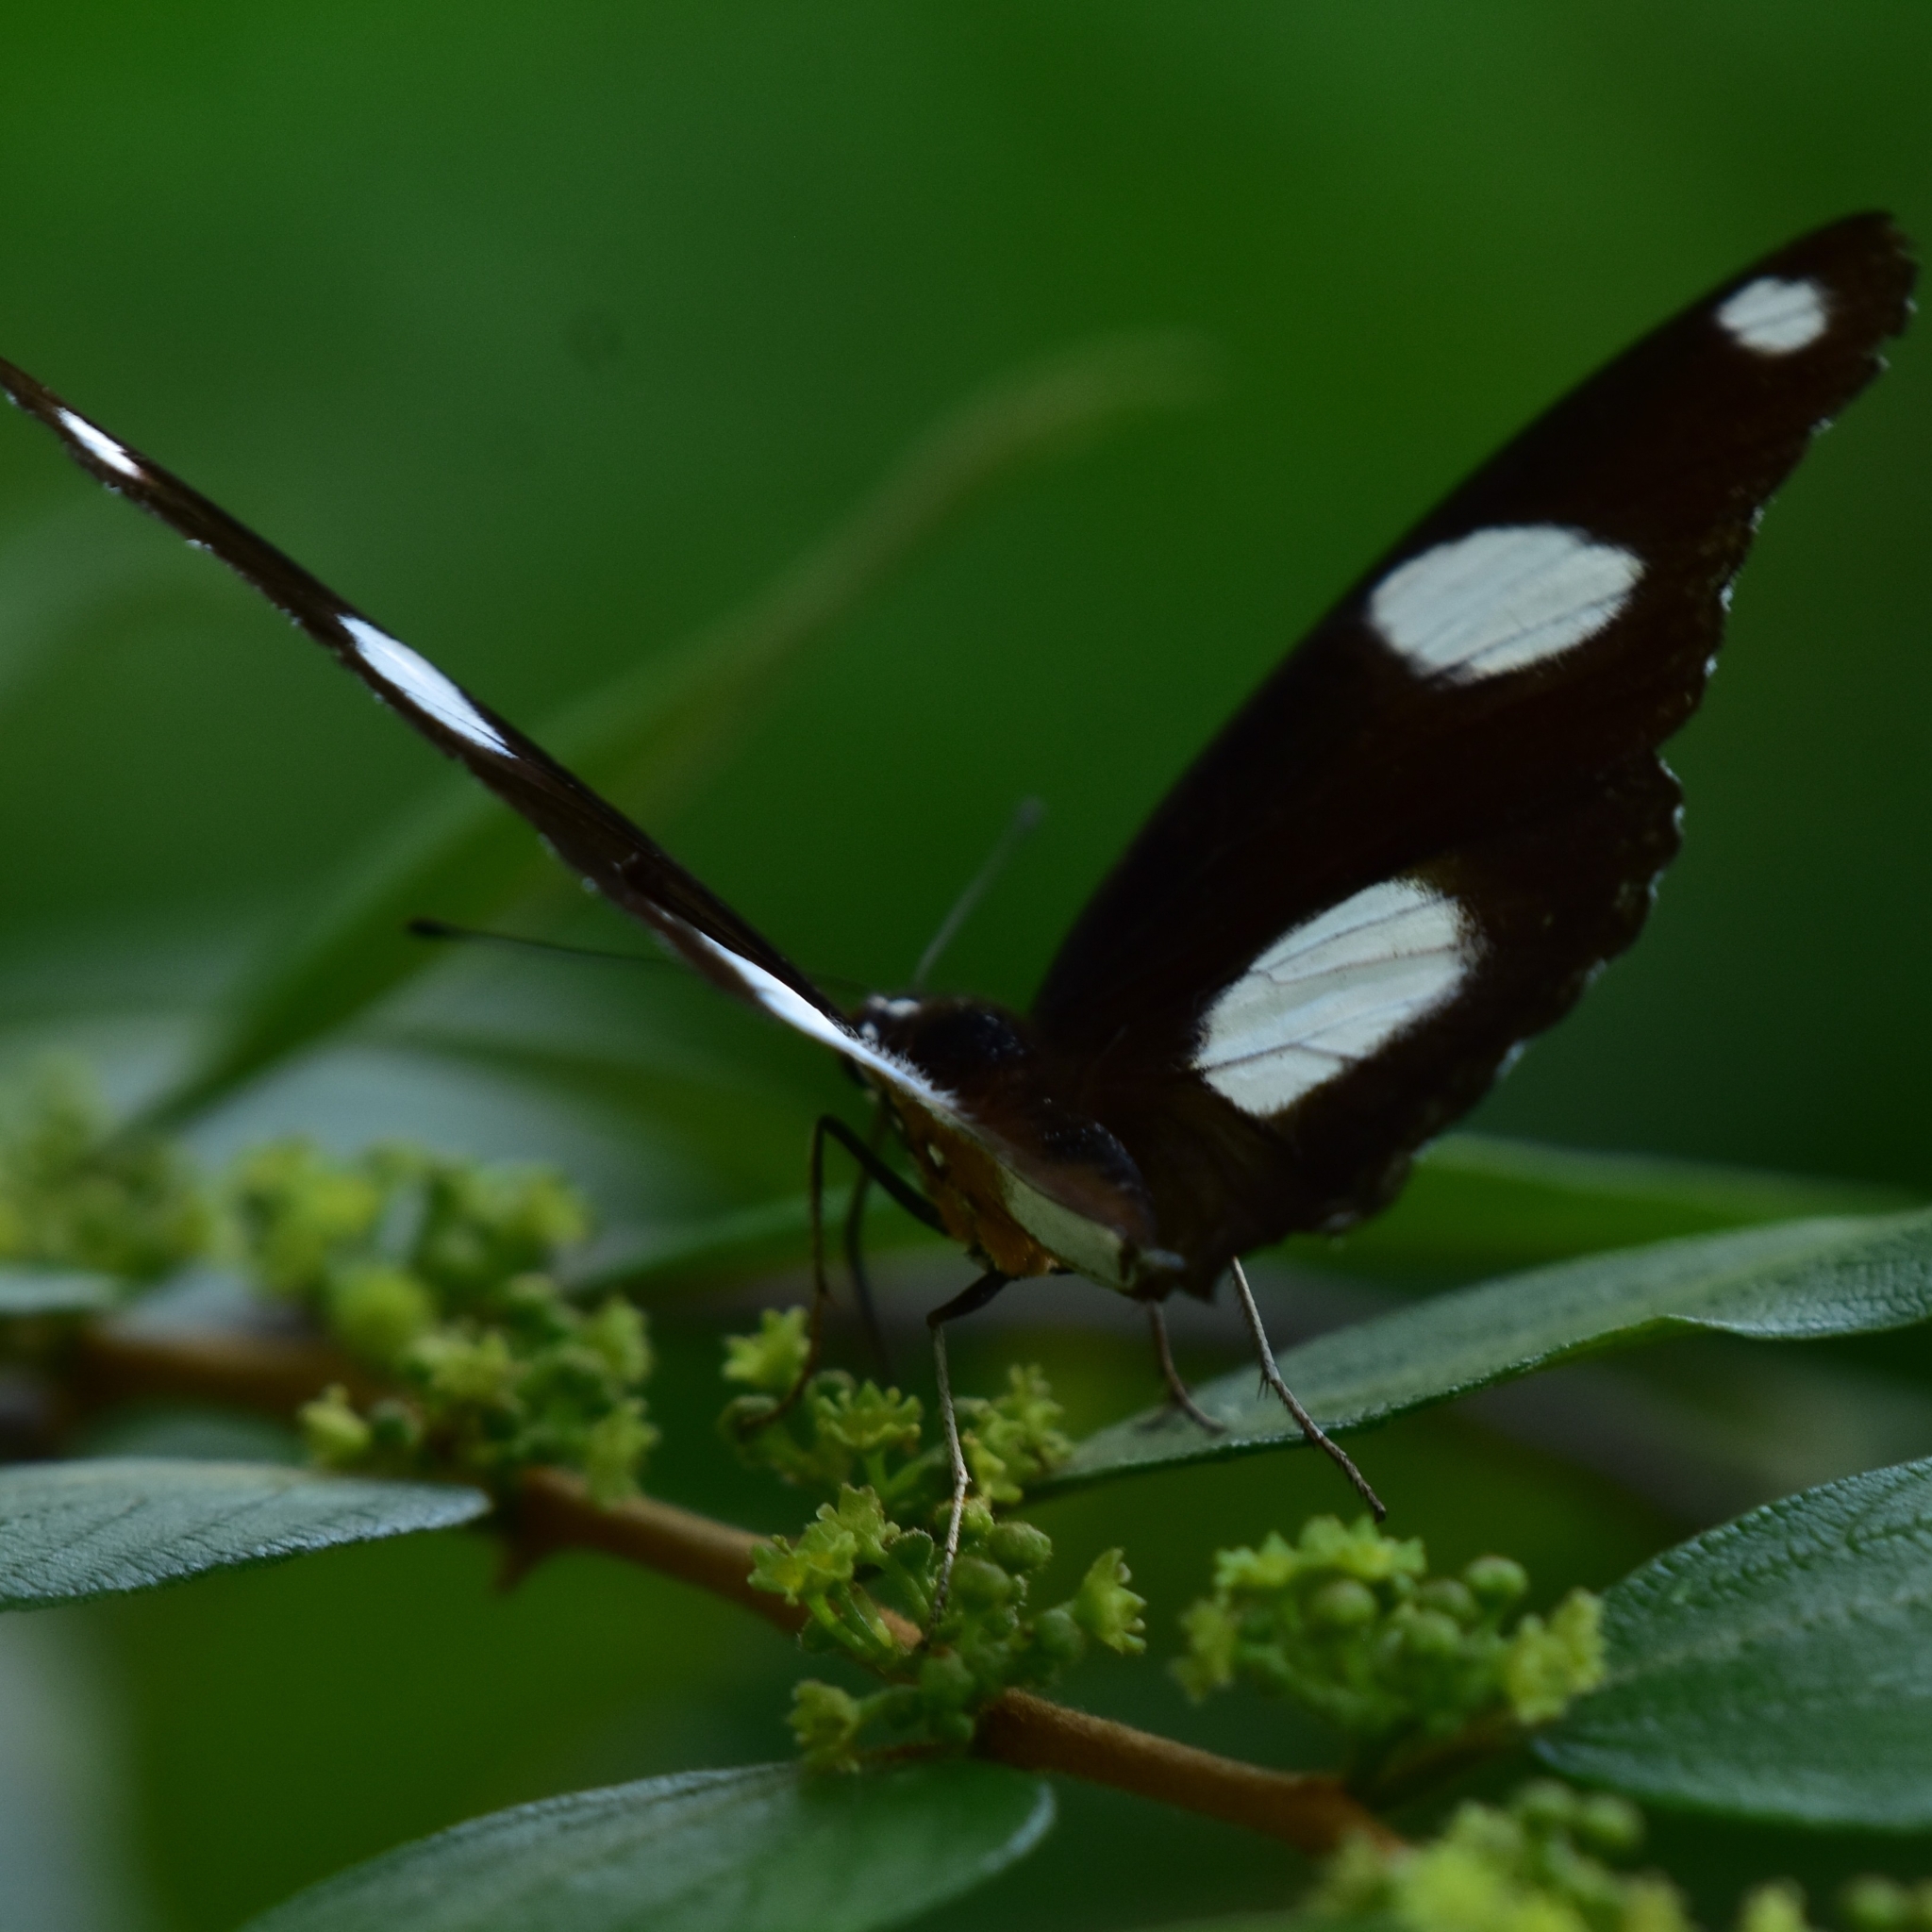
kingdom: Animalia
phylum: Arthropoda
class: Insecta
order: Lepidoptera
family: Nymphalidae
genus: Hypolimnas
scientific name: Hypolimnas misippus
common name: False plain tiger
